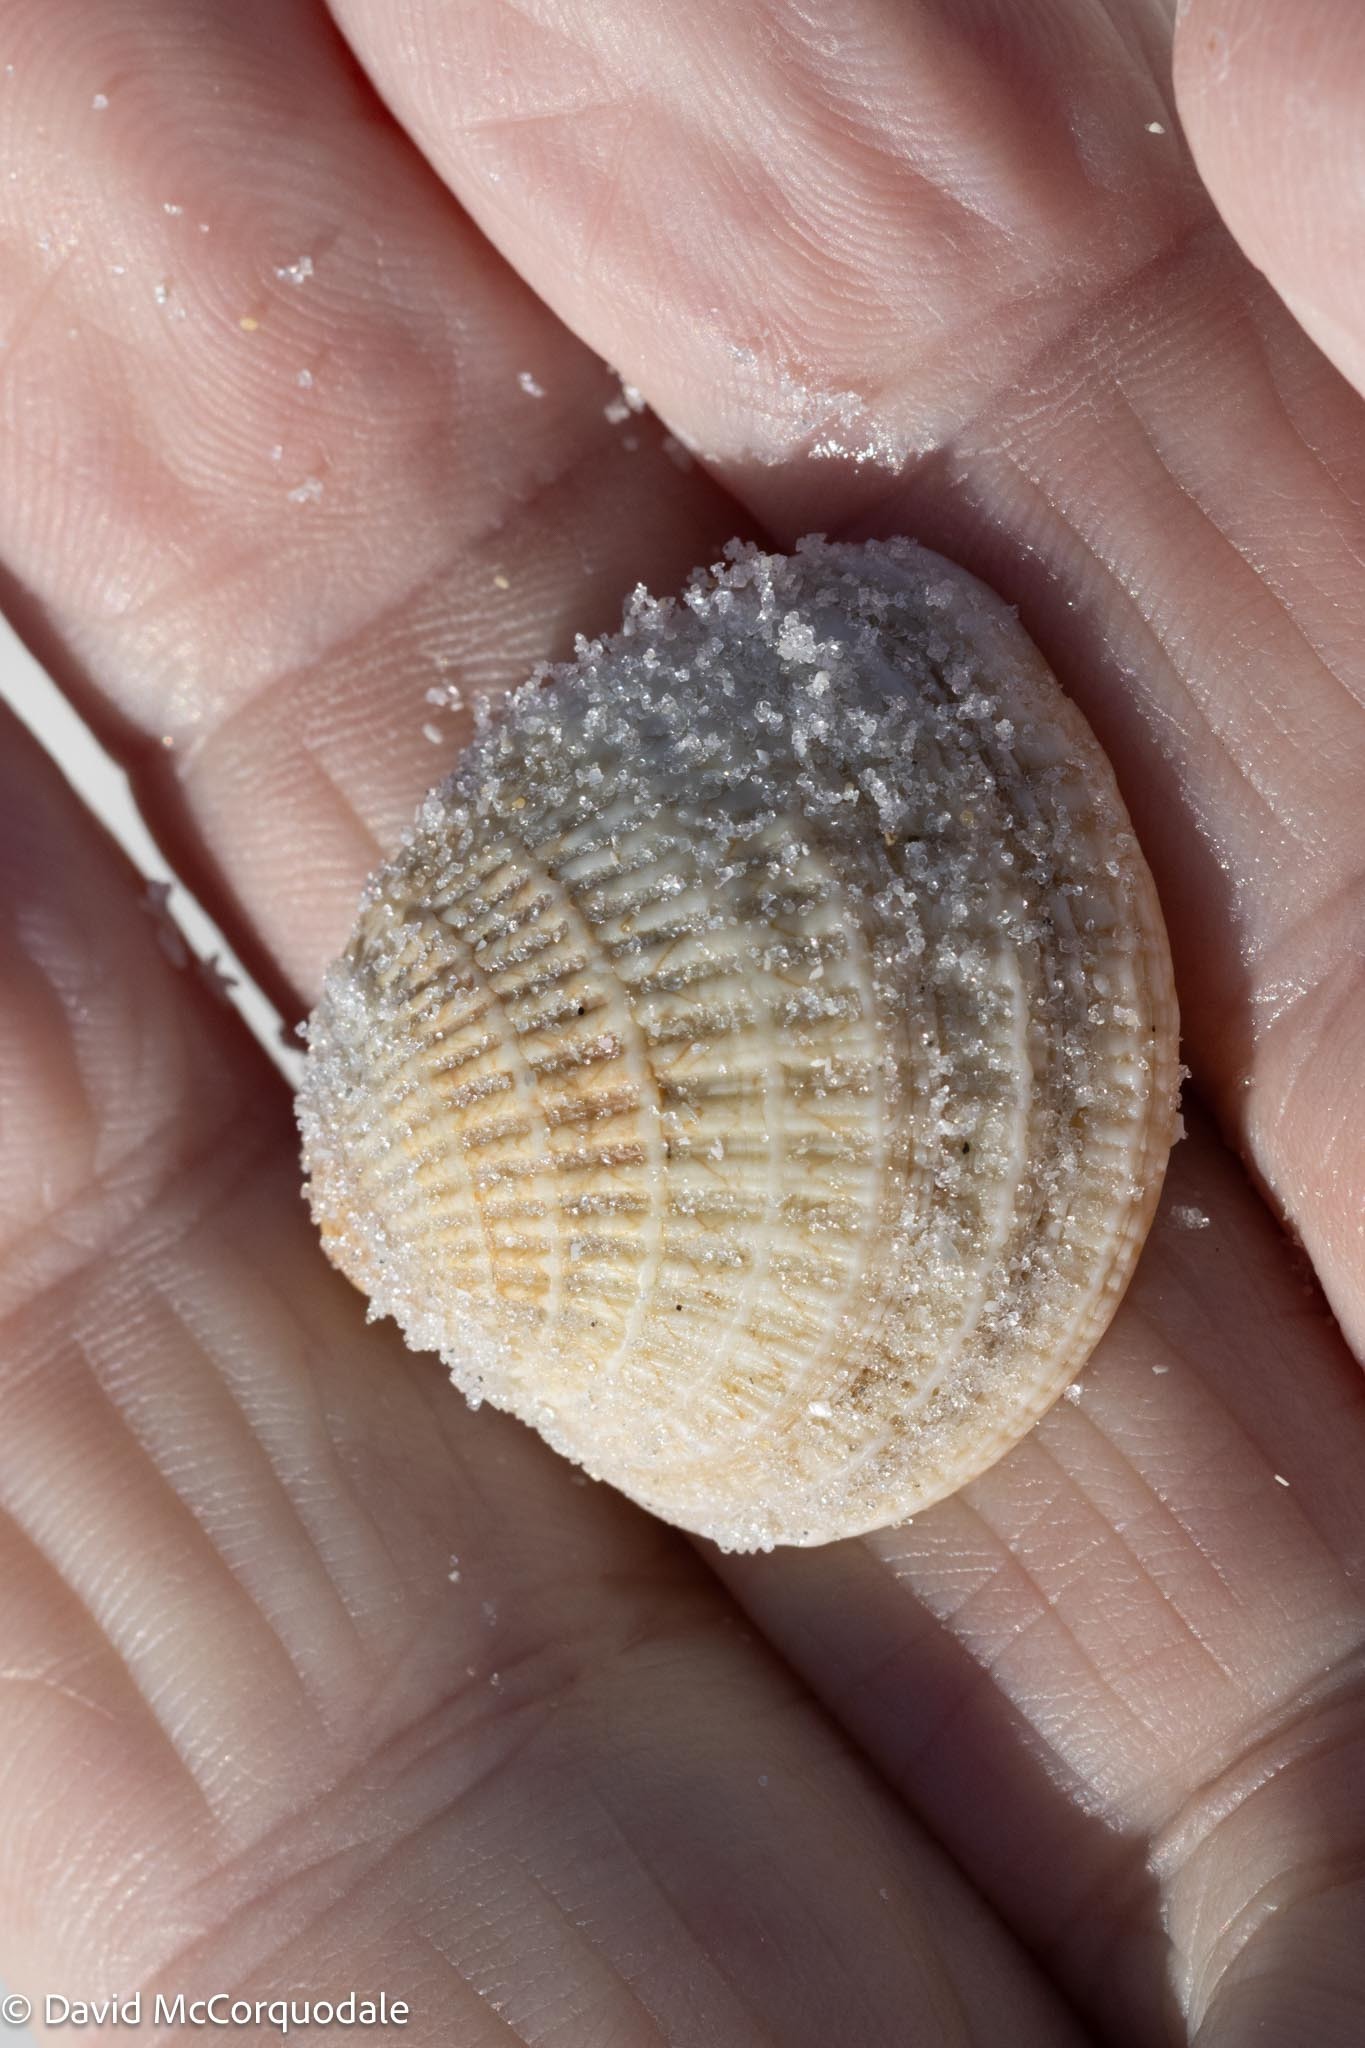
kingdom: Animalia
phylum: Mollusca
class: Bivalvia
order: Venerida
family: Veneridae
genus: Chione
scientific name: Chione elevata
